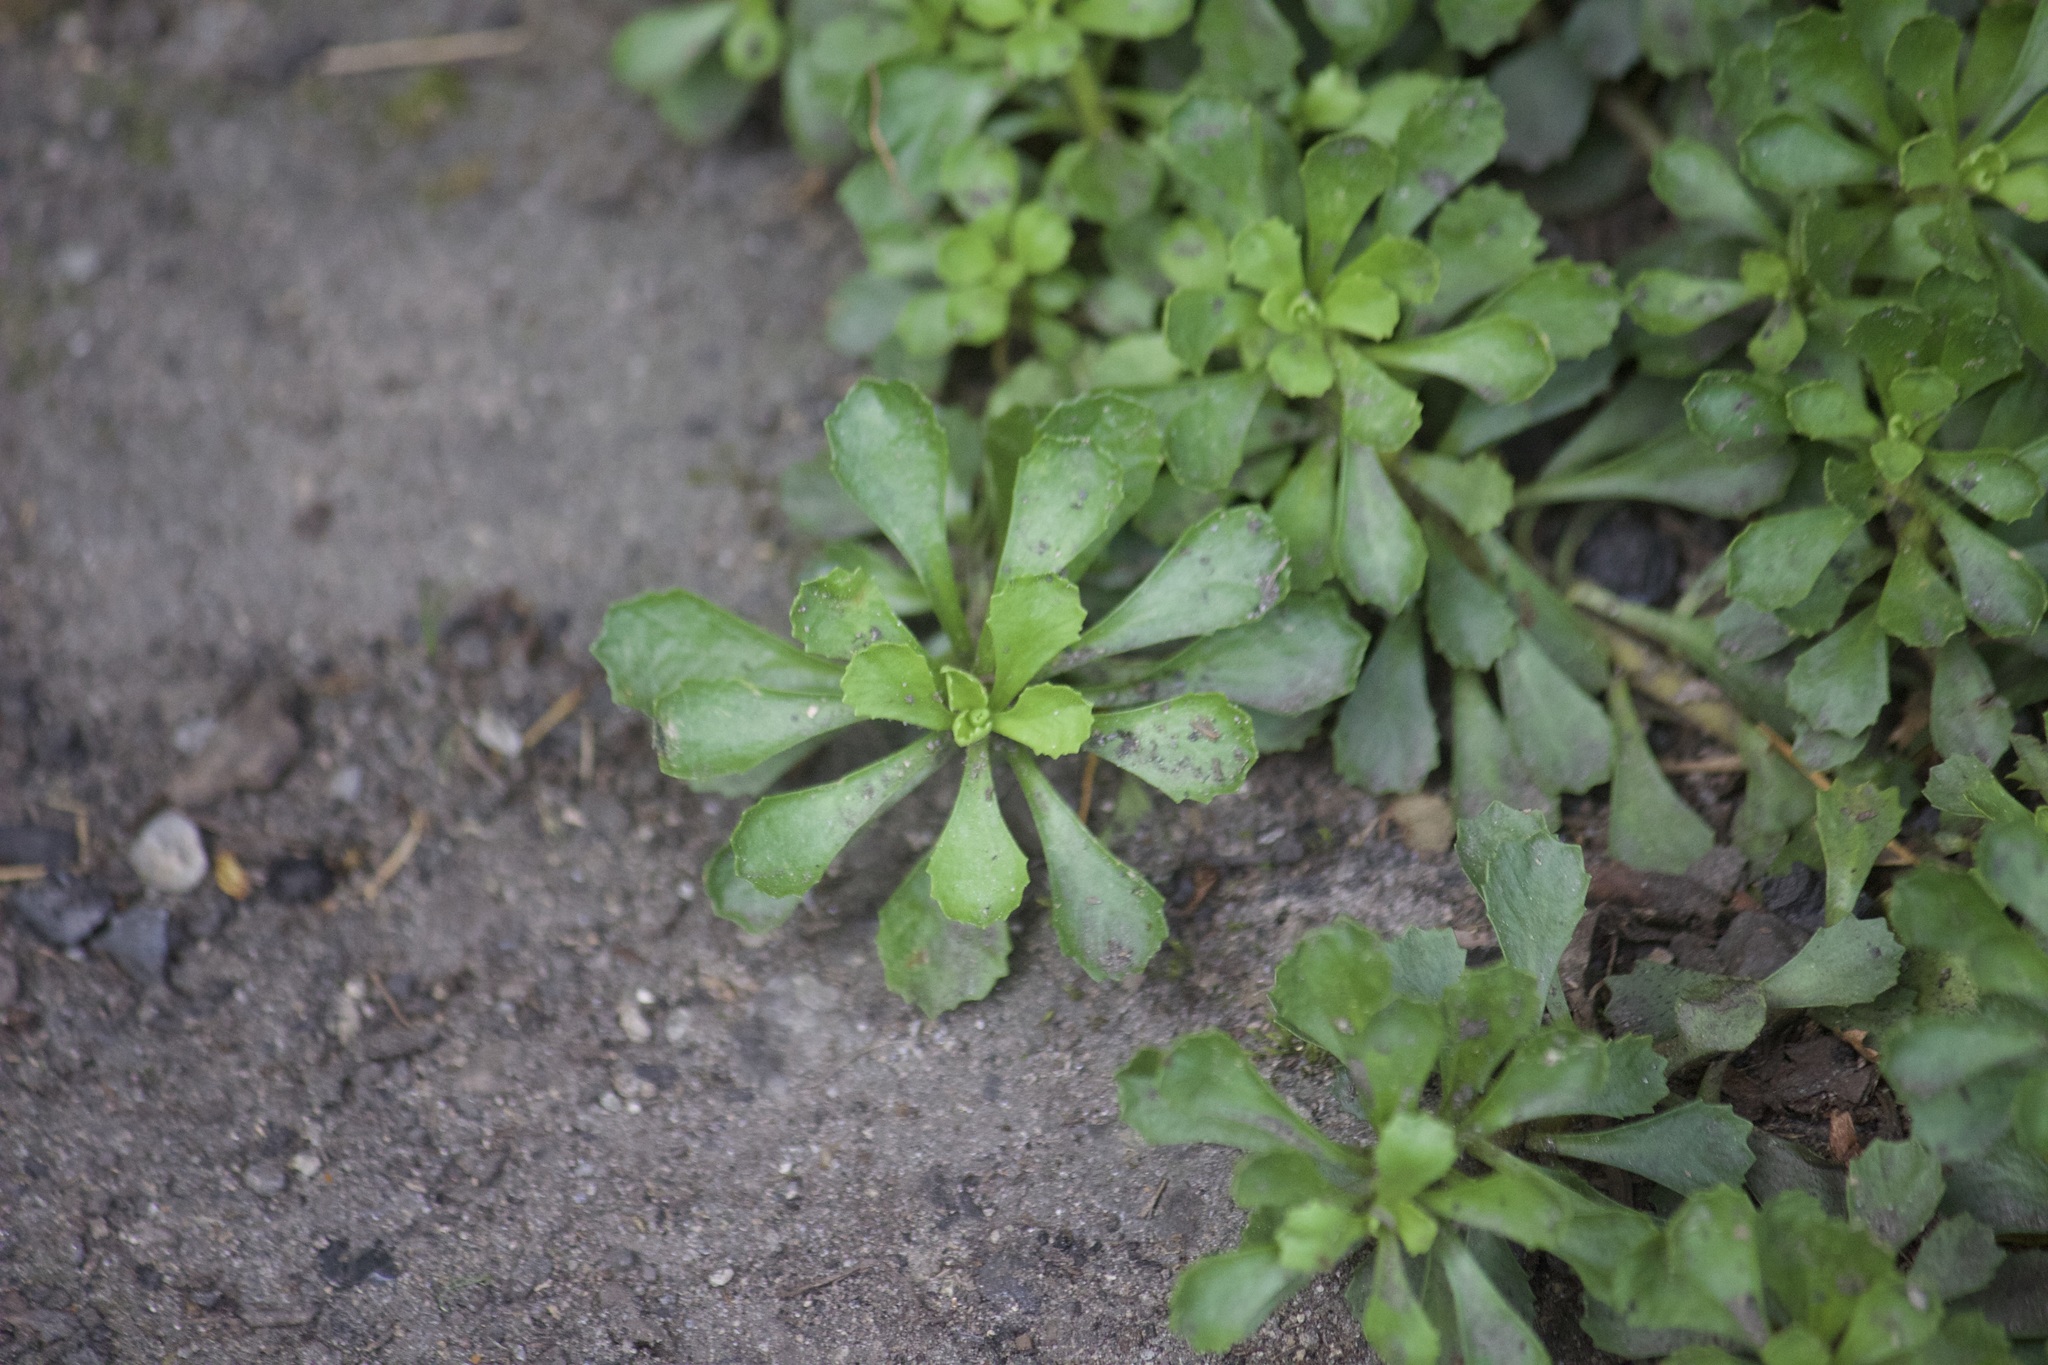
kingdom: Plantae
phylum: Tracheophyta
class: Magnoliopsida
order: Ericales
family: Primulaceae
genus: Primula
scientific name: Primula suffrutescens
